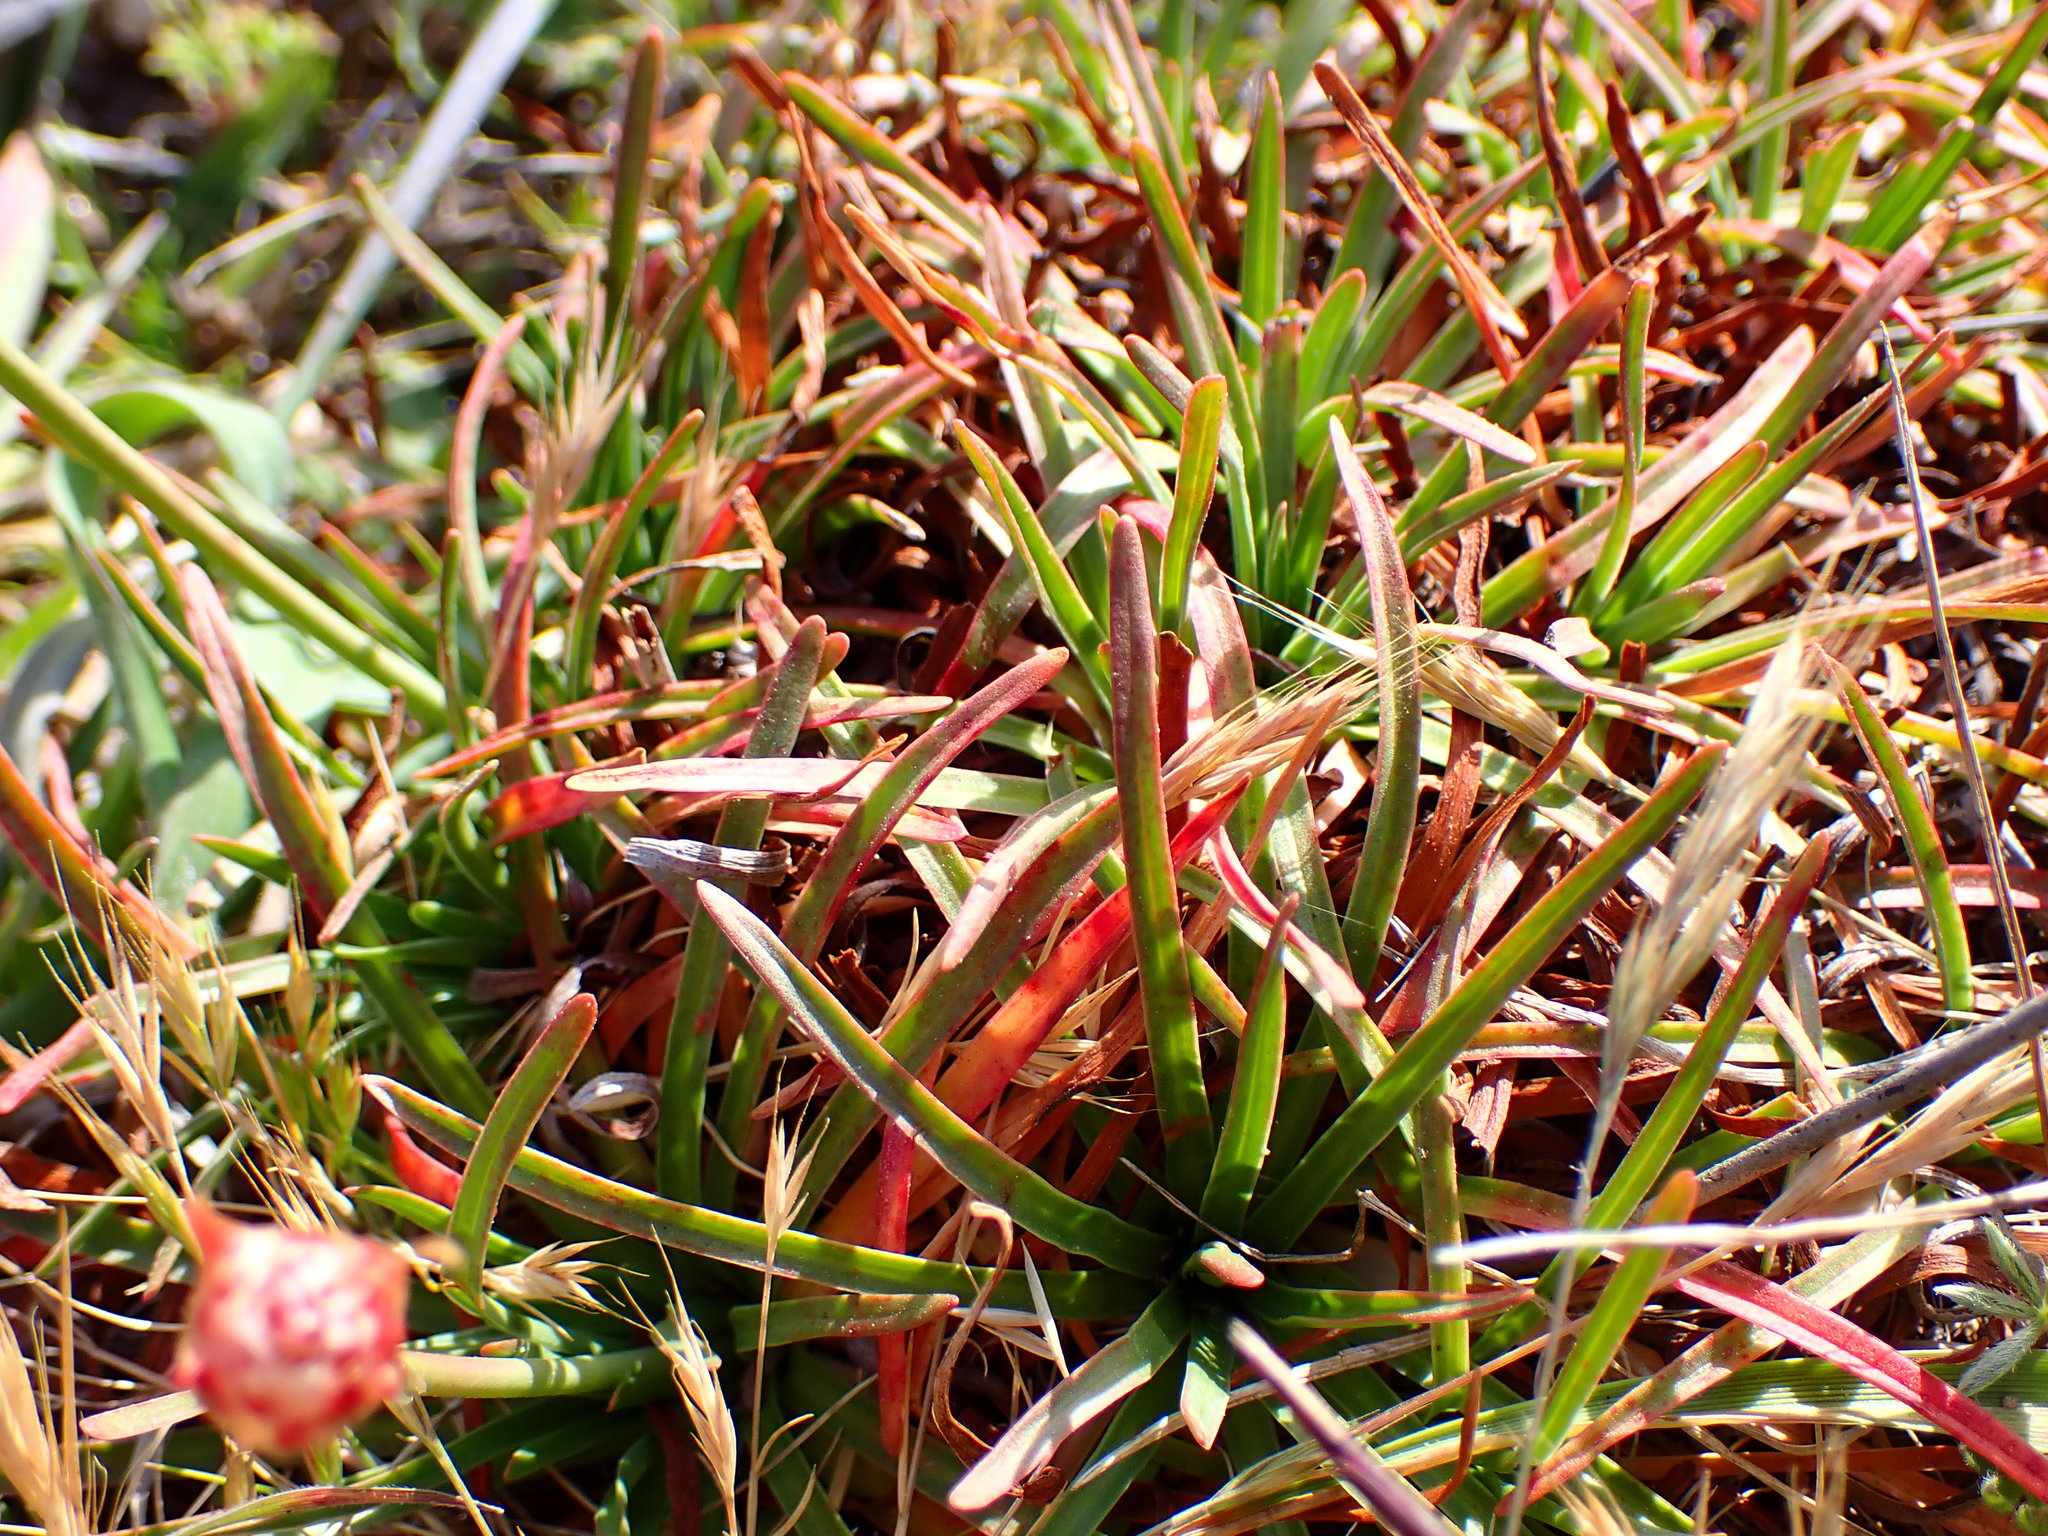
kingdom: Plantae
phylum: Tracheophyta
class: Magnoliopsida
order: Caryophyllales
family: Plumbaginaceae
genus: Armeria
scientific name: Armeria maritima
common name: Thrift
